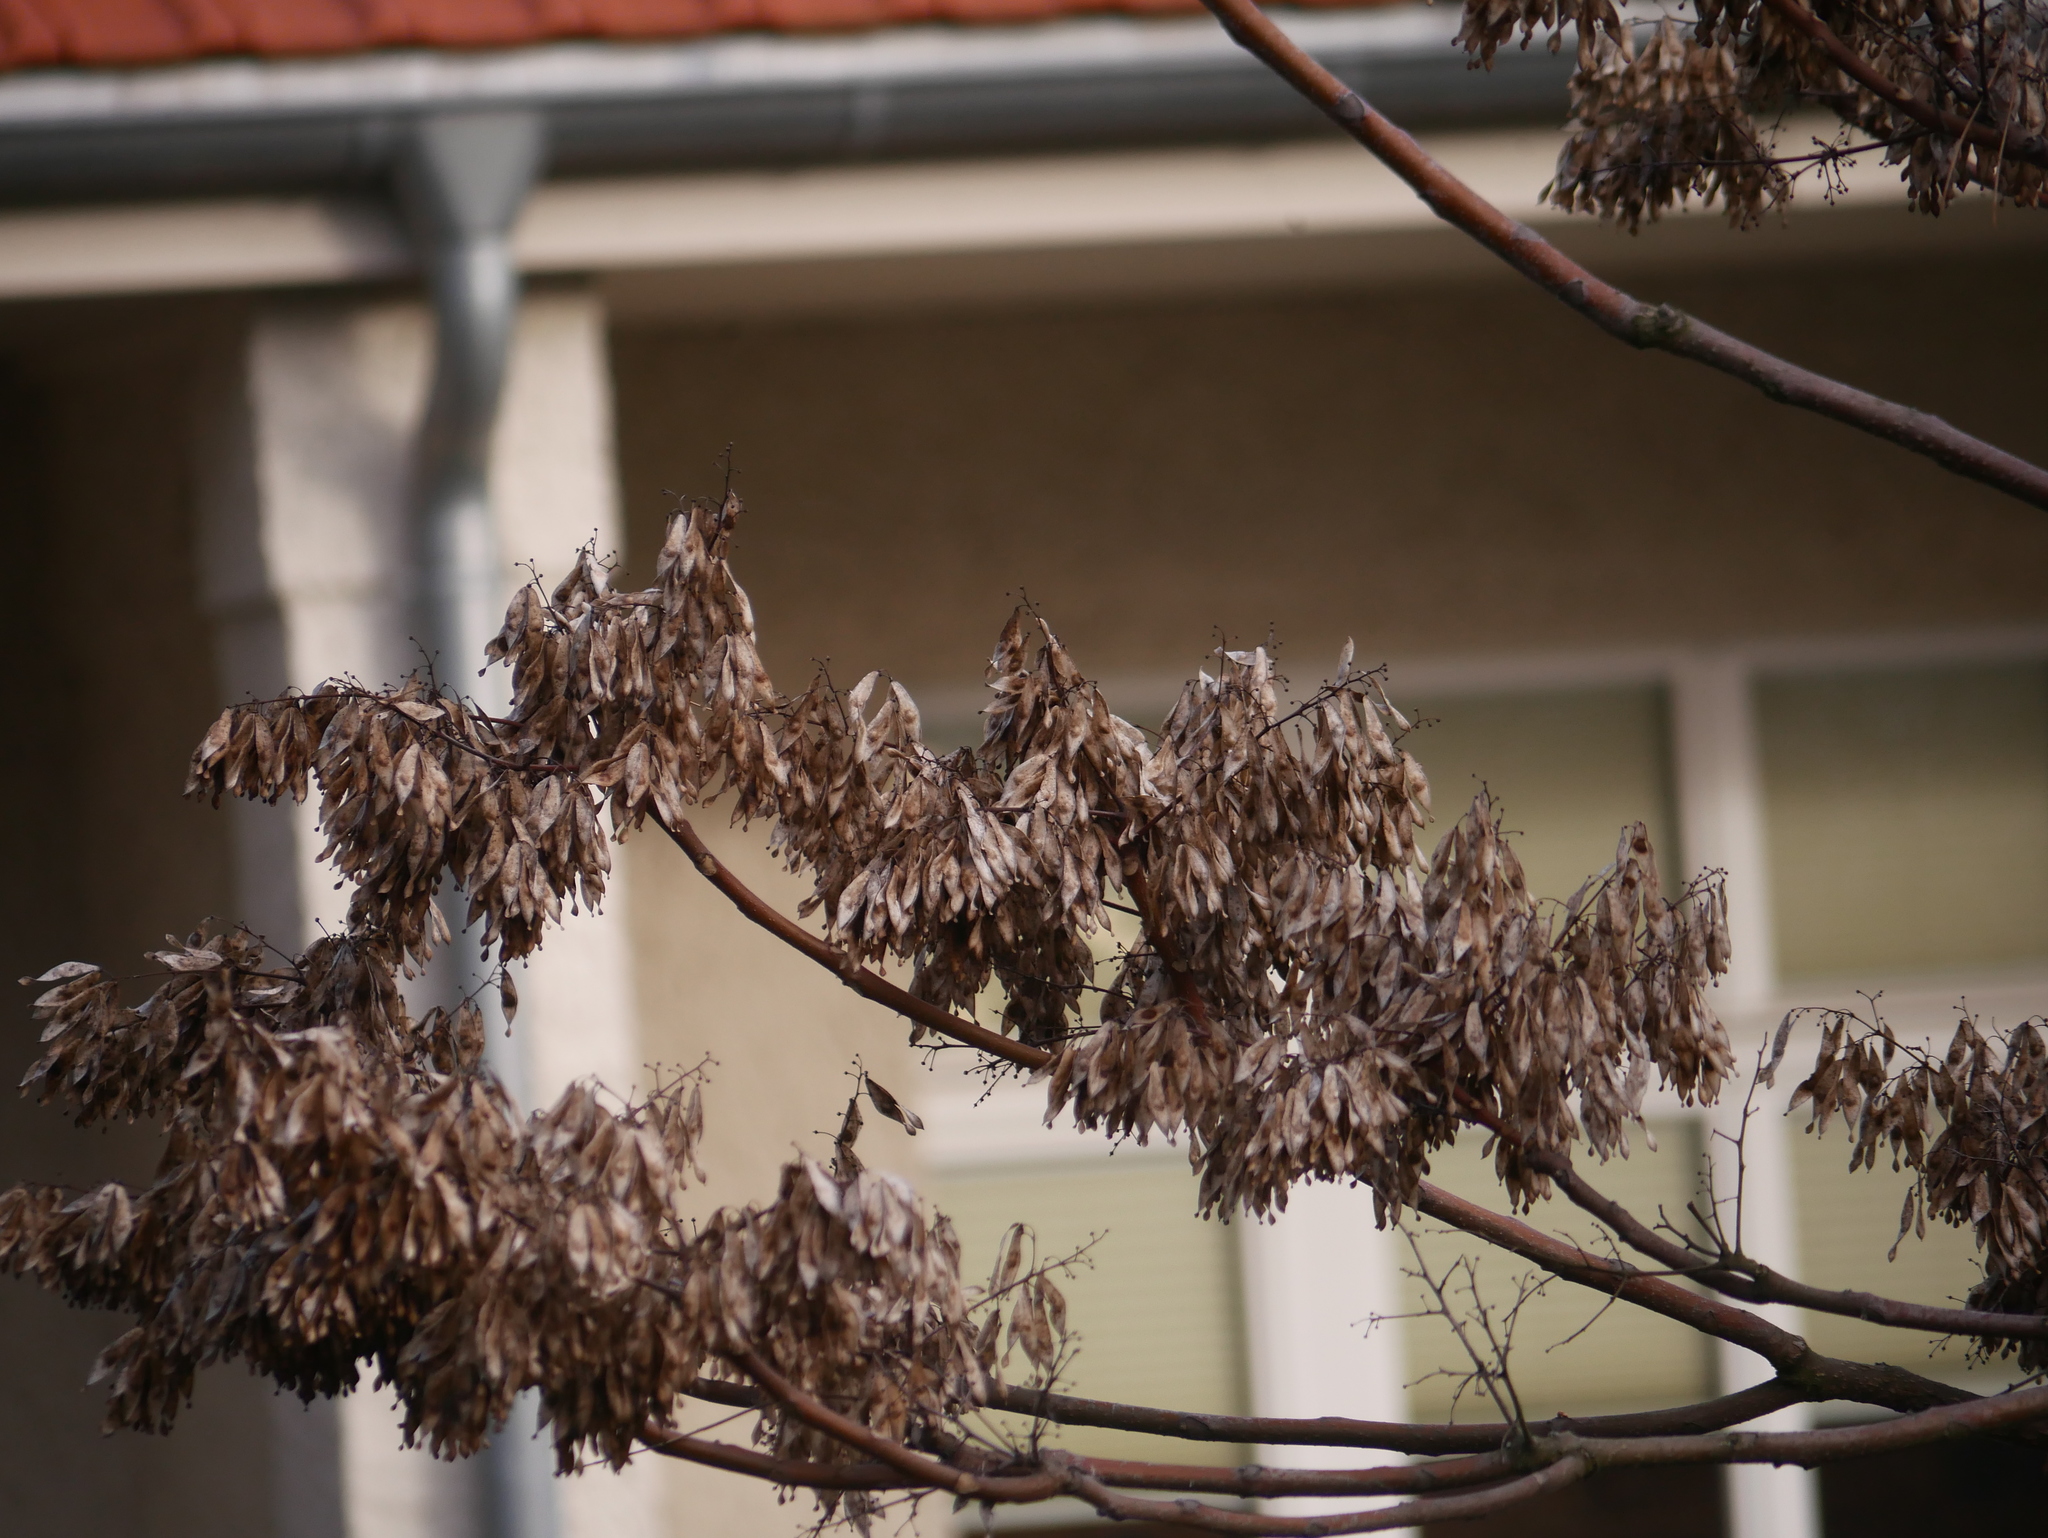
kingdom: Plantae
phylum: Tracheophyta
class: Magnoliopsida
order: Sapindales
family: Simaroubaceae
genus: Ailanthus
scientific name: Ailanthus altissima
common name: Tree-of-heaven
